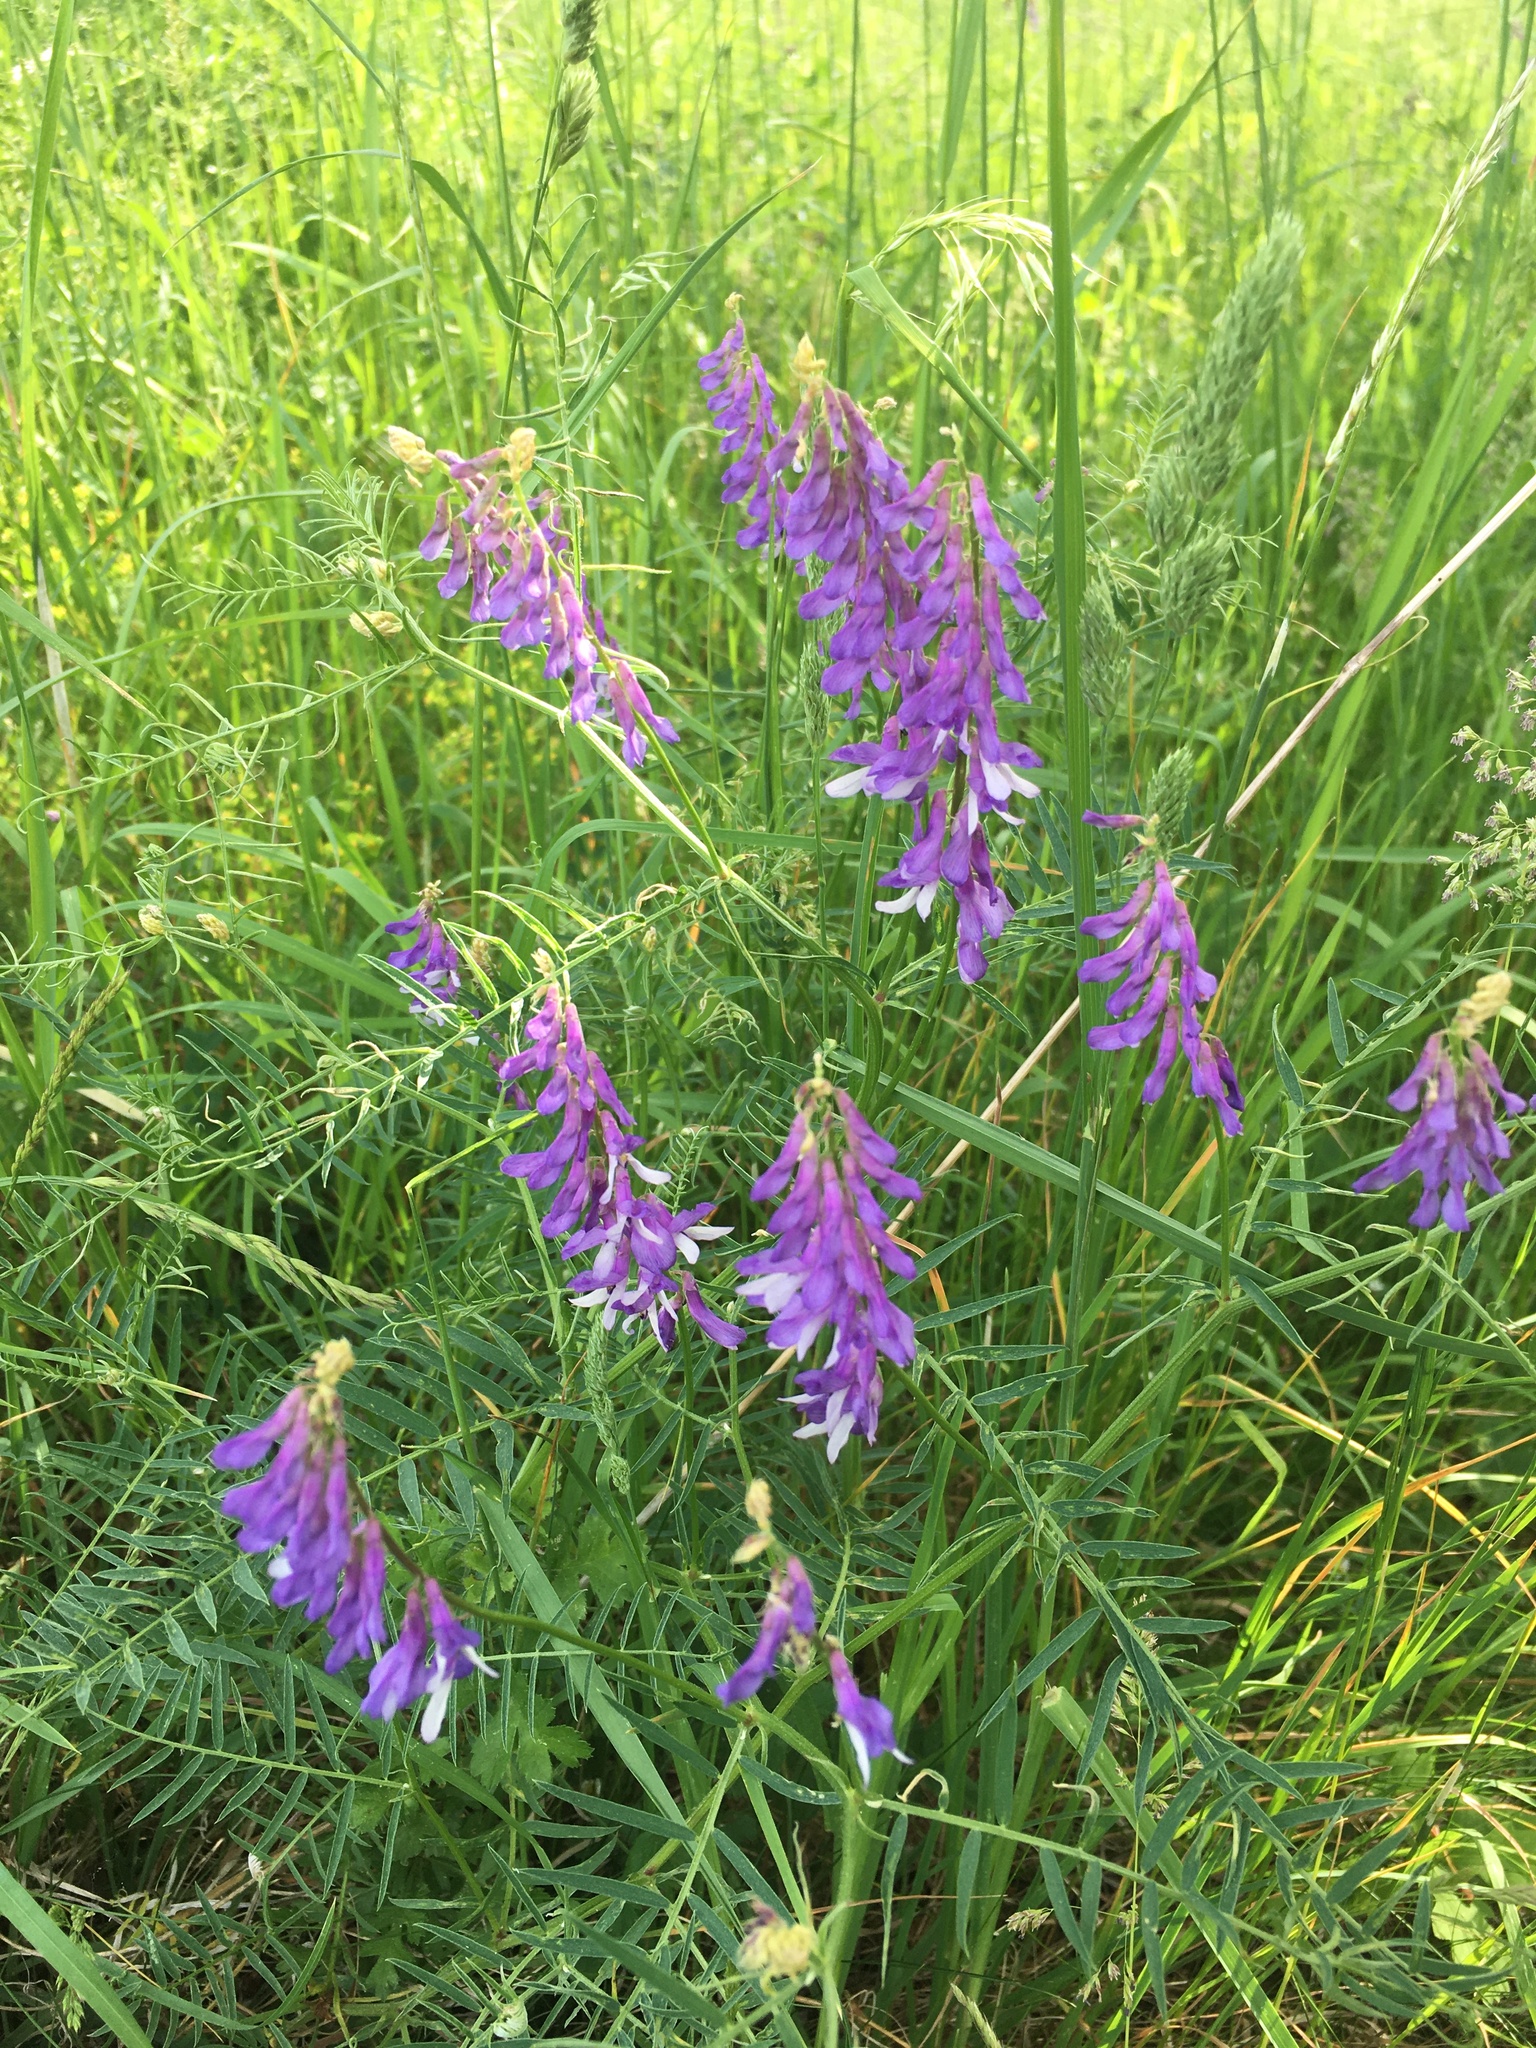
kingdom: Plantae
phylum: Tracheophyta
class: Magnoliopsida
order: Fabales
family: Fabaceae
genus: Vicia
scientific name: Vicia tenuifolia
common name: Fine-leaved vetch
